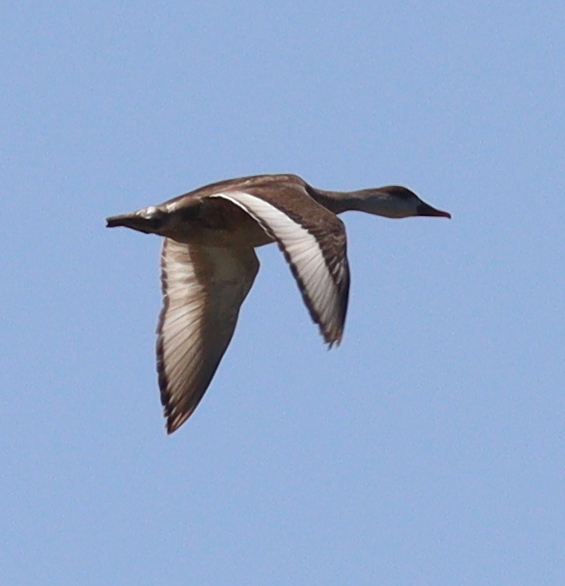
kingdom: Animalia
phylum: Chordata
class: Aves
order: Anseriformes
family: Anatidae
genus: Netta
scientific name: Netta rufina
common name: Red-crested pochard
